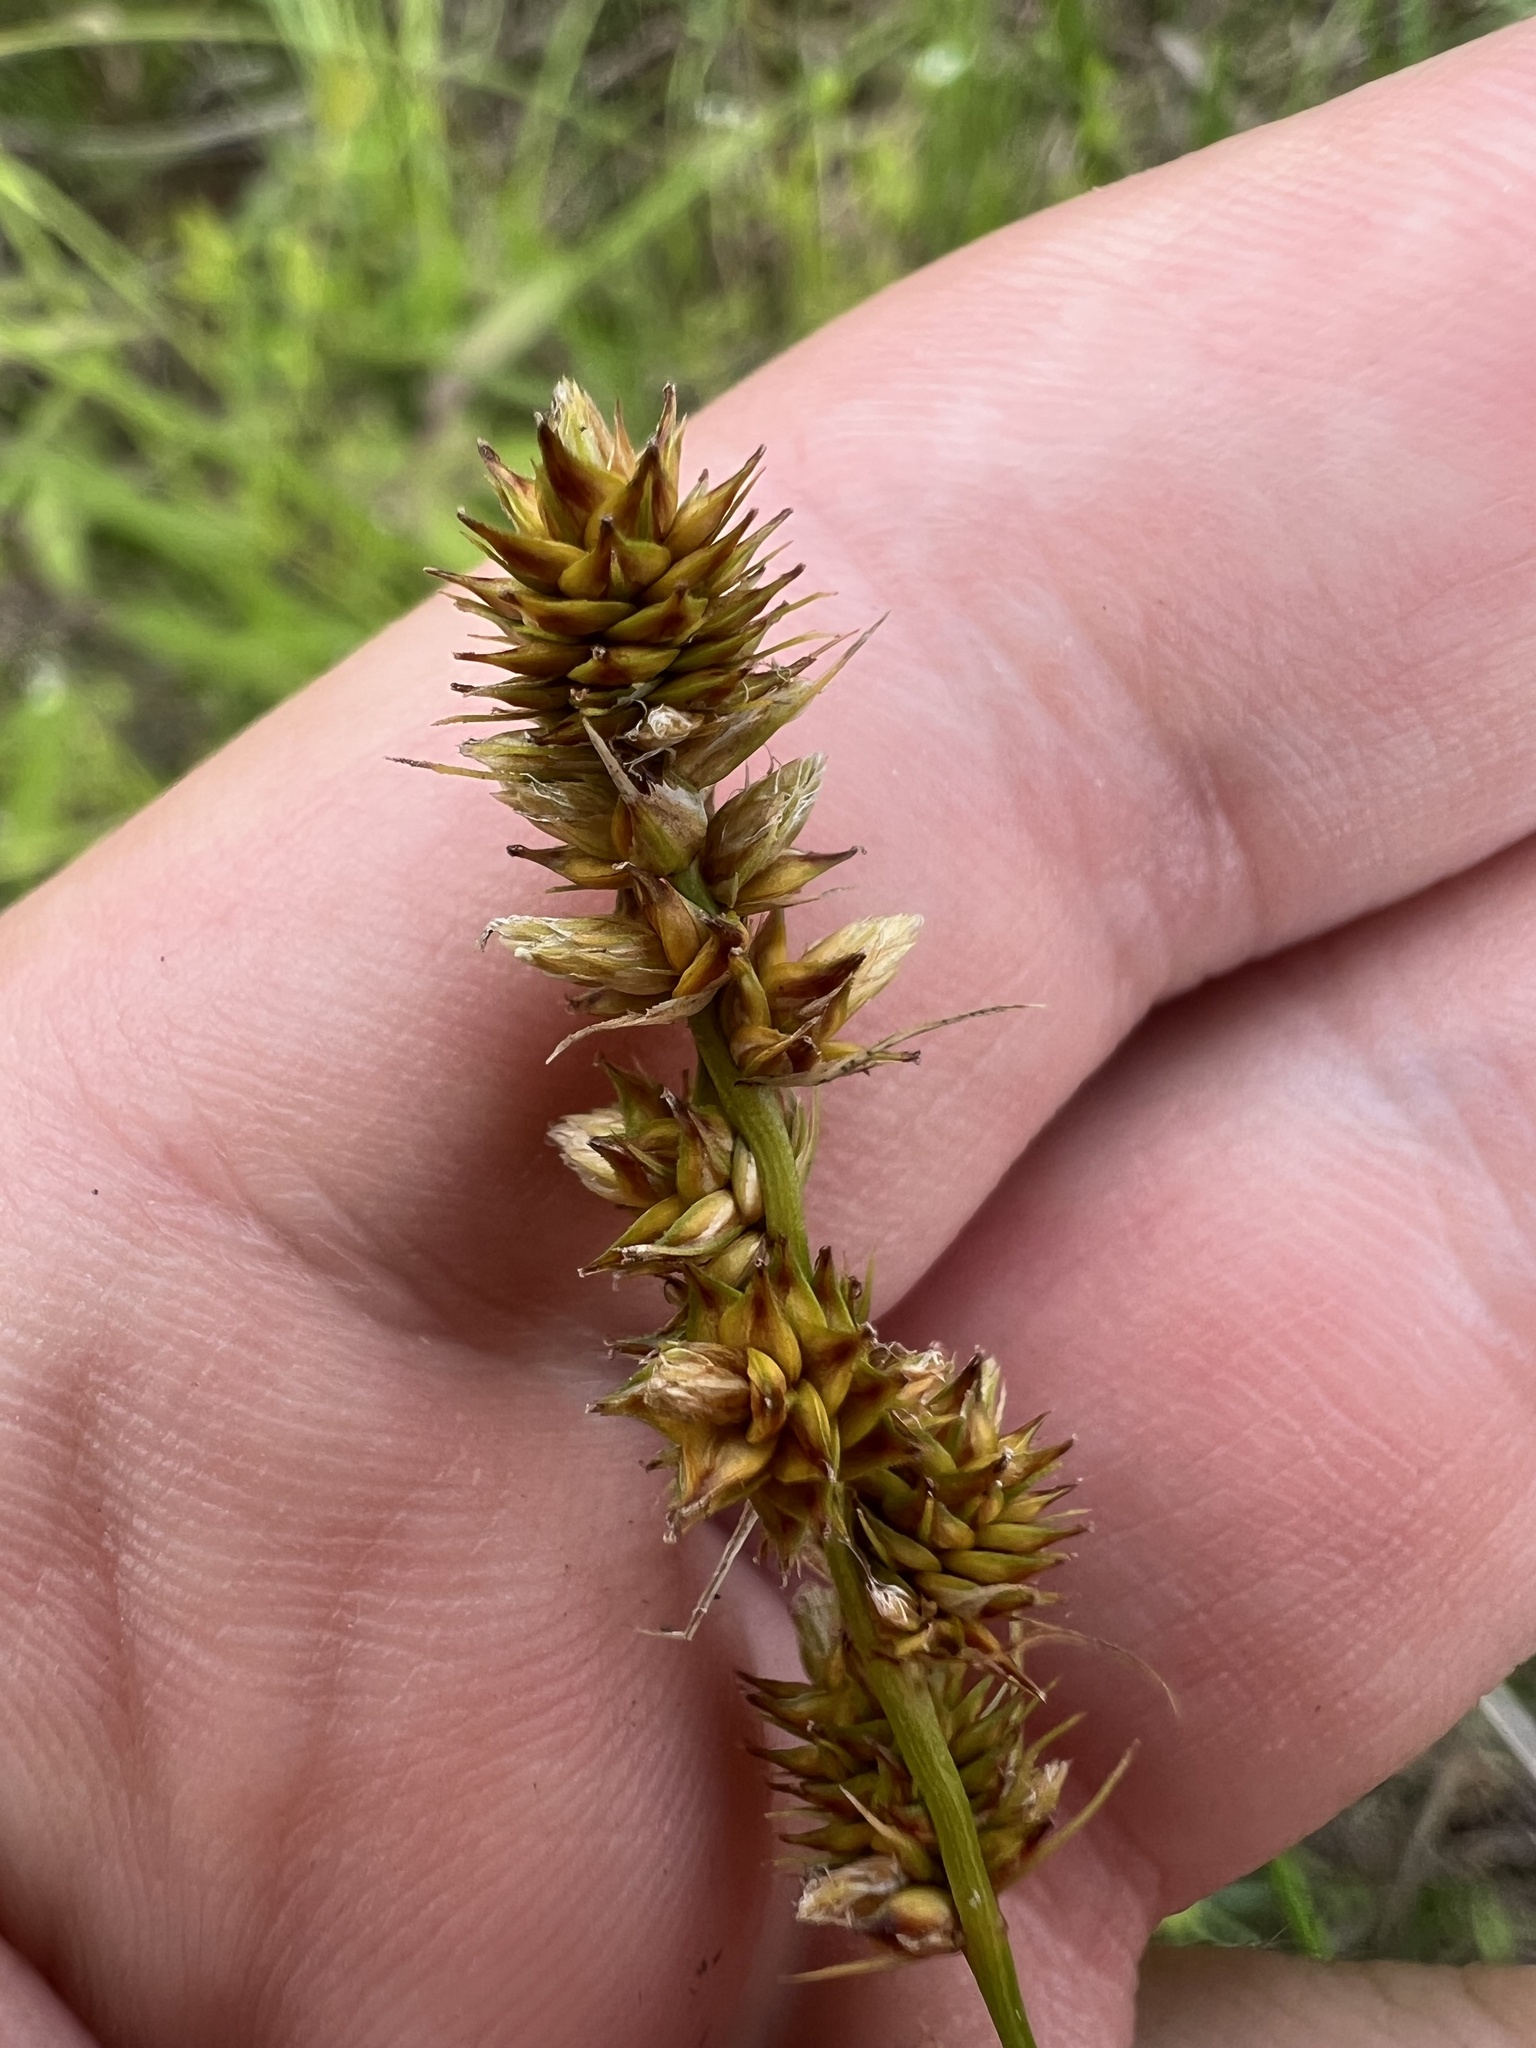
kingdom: Plantae
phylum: Tracheophyta
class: Liliopsida
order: Poales
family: Cyperaceae
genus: Carex
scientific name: Carex annectens
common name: Large fox sedge
